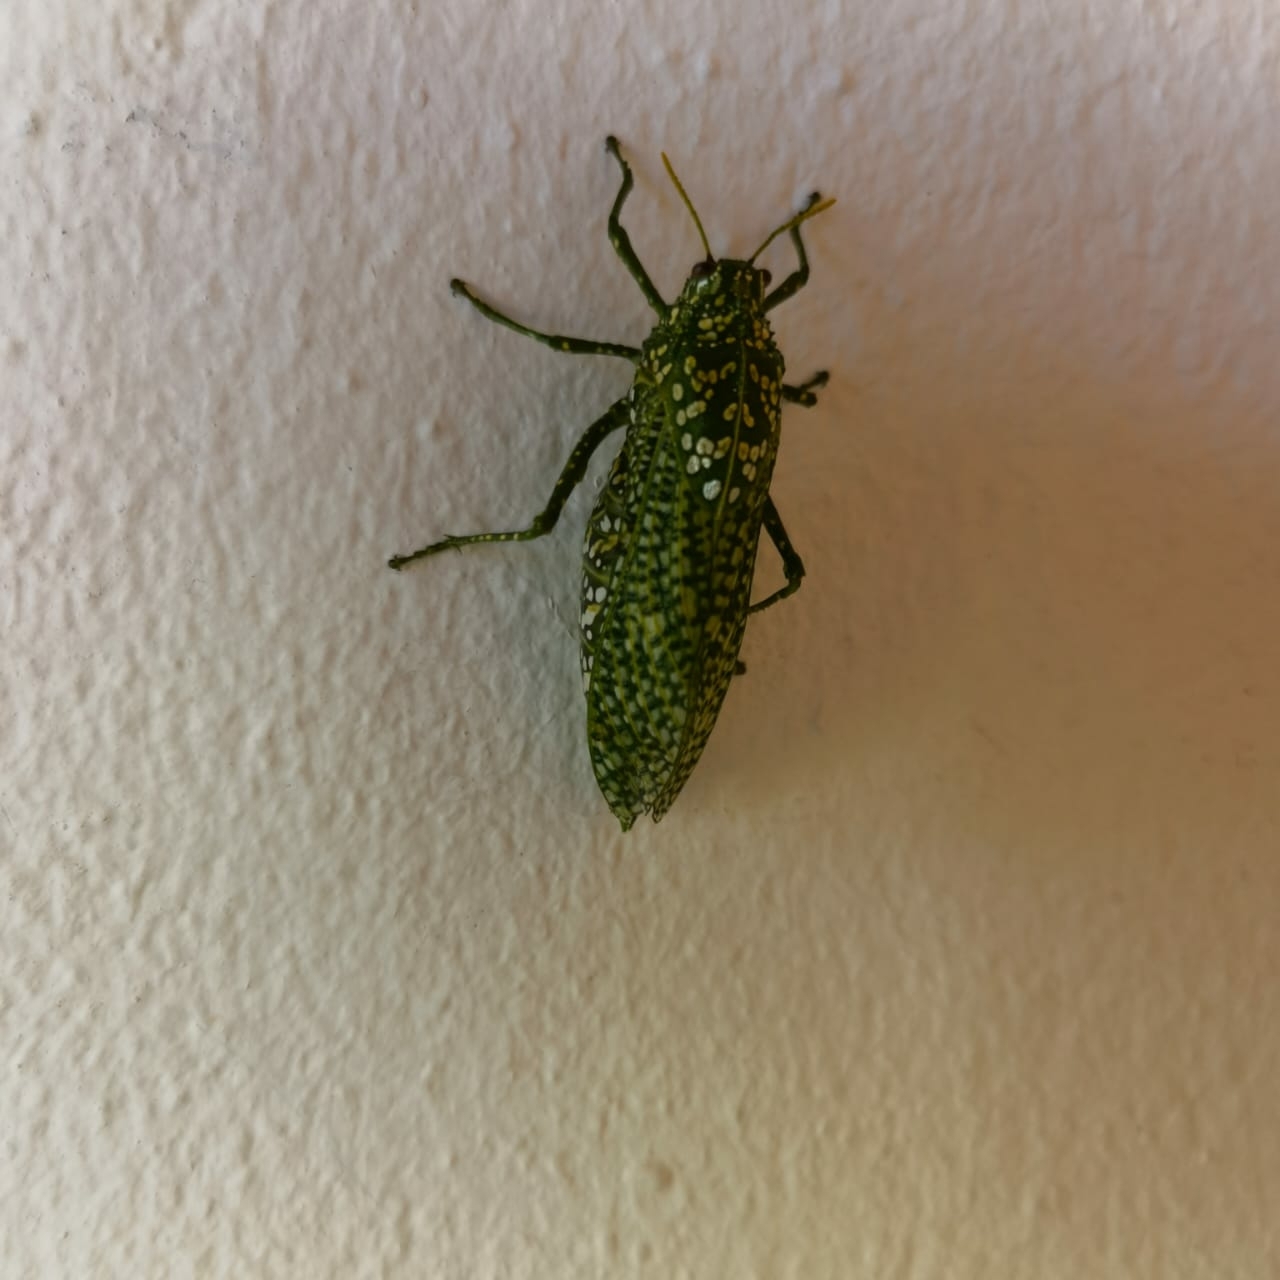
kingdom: Animalia
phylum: Arthropoda
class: Insecta
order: Orthoptera
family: Pneumoridae
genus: Physemacris
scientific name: Physemacris variolosa
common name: Silver spotted bladder grasshopper
